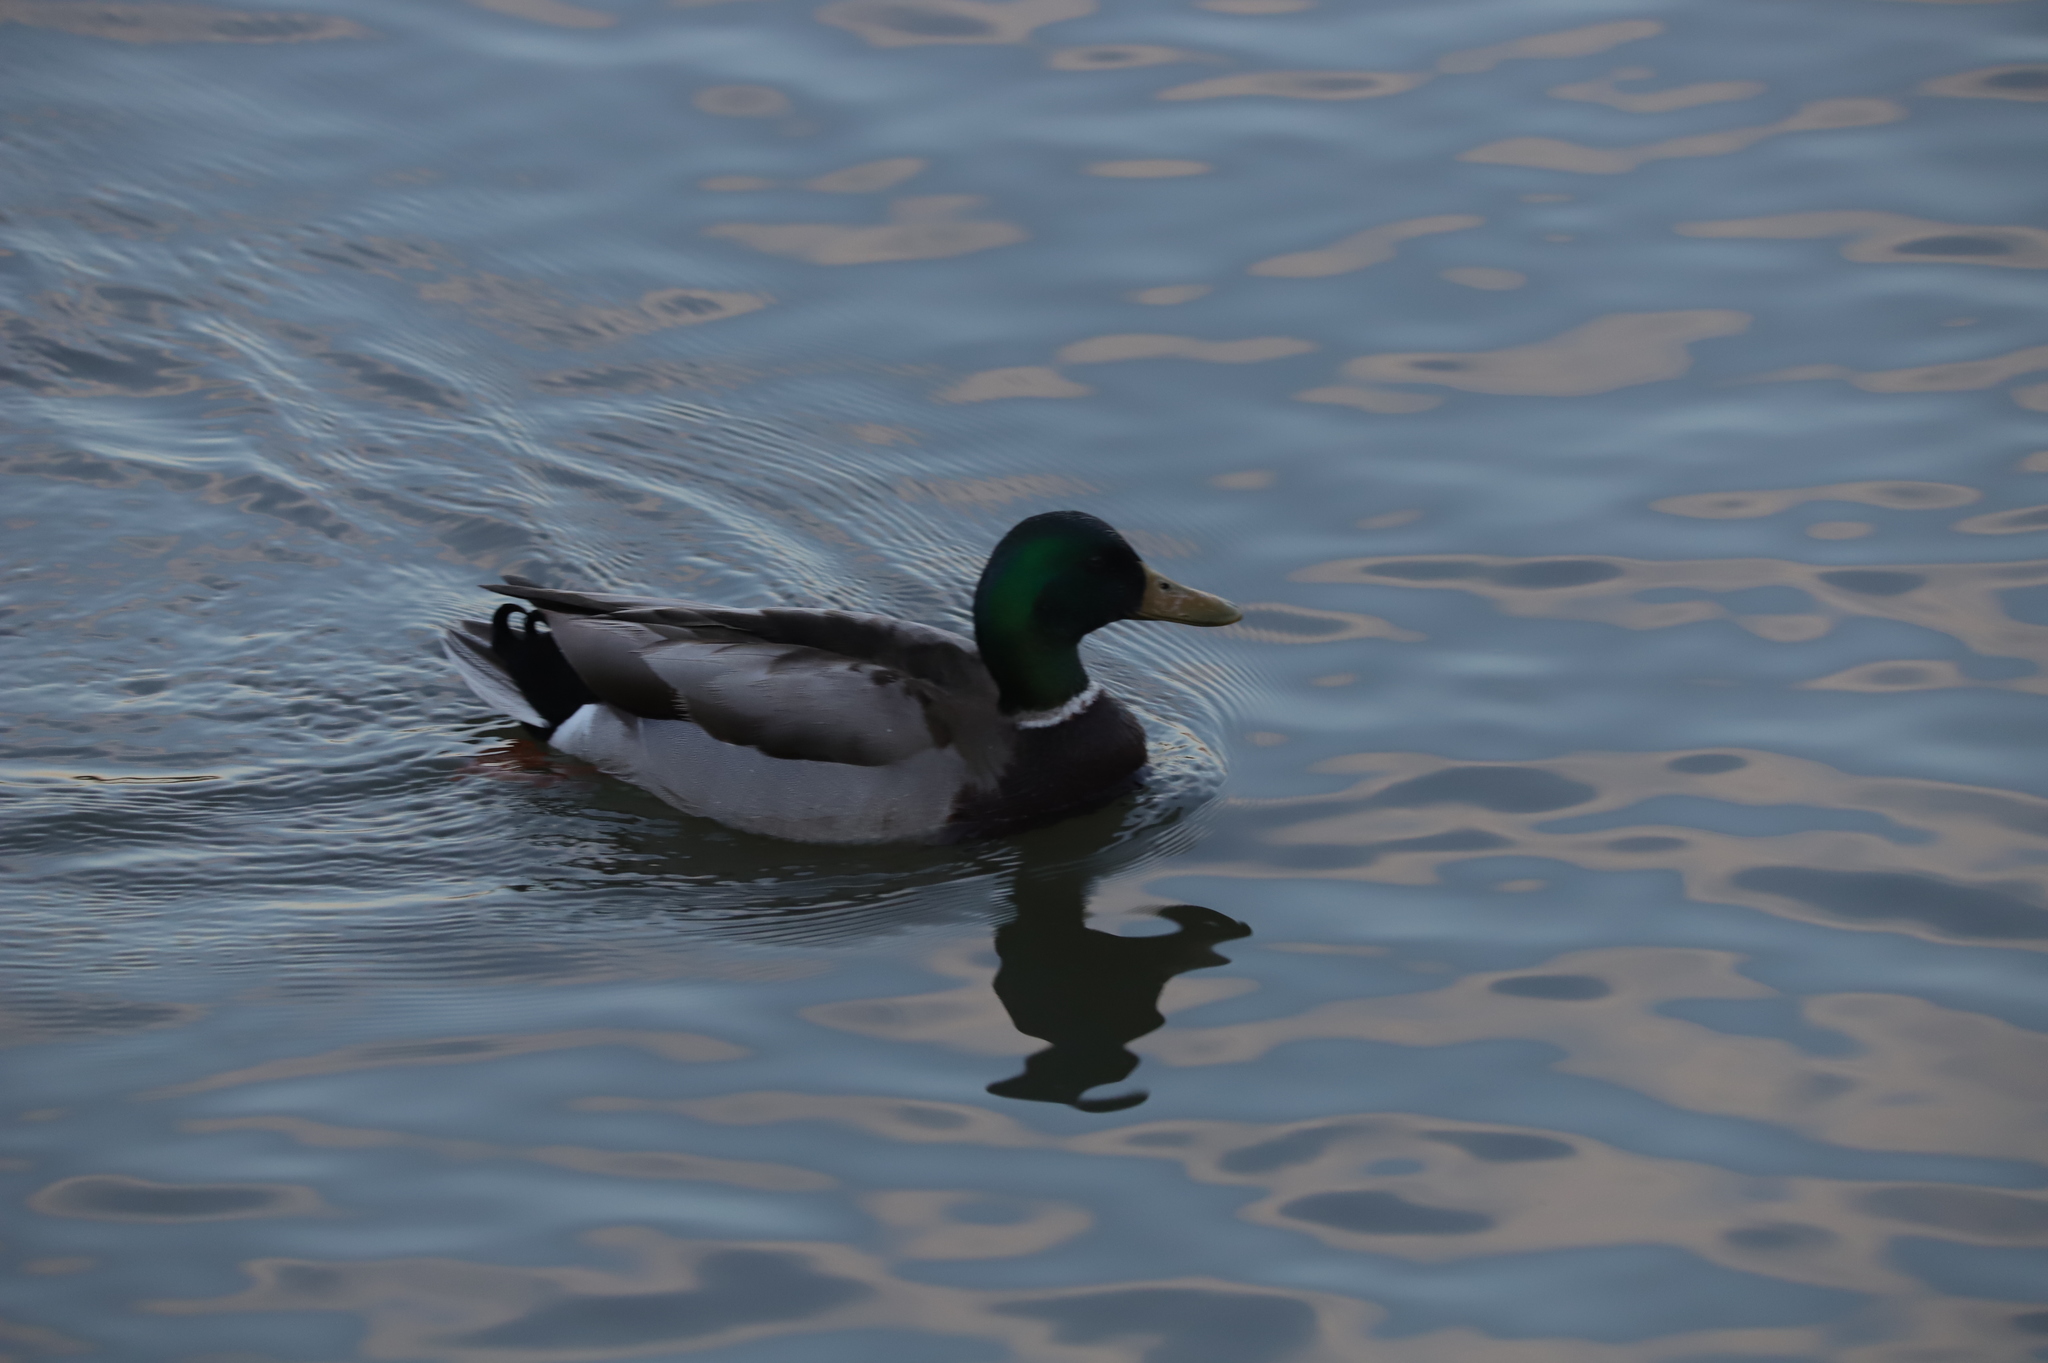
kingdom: Animalia
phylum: Chordata
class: Aves
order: Anseriformes
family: Anatidae
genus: Anas
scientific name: Anas platyrhynchos
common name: Mallard
